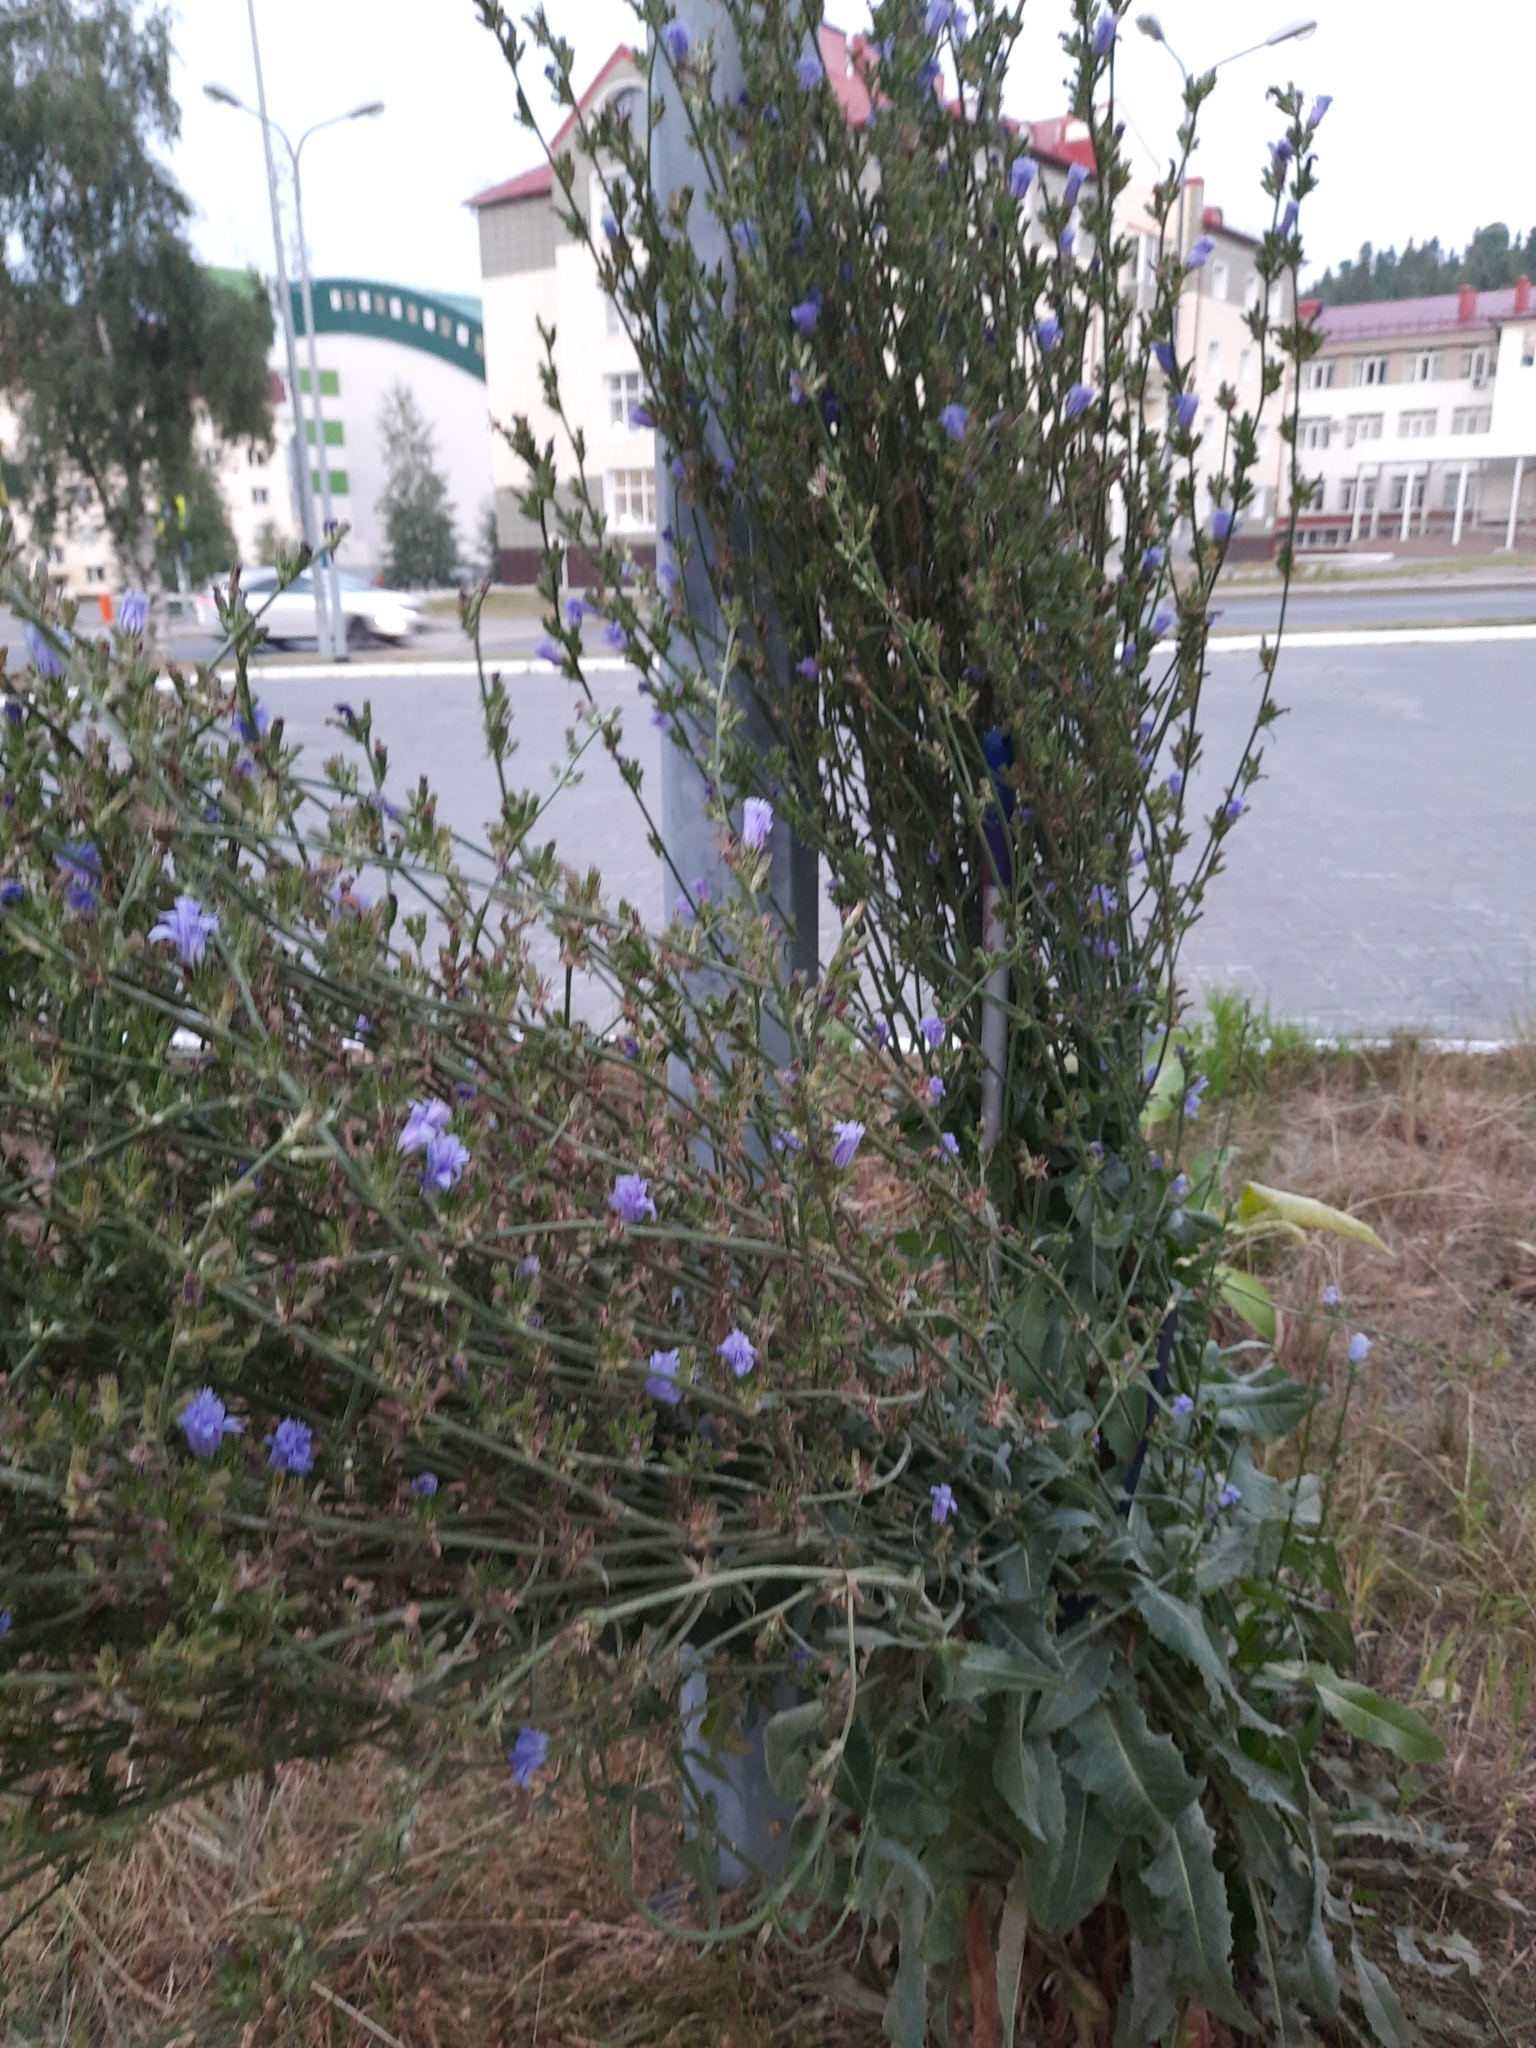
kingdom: Plantae
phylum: Tracheophyta
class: Magnoliopsida
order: Asterales
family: Asteraceae
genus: Cichorium
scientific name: Cichorium intybus
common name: Chicory
